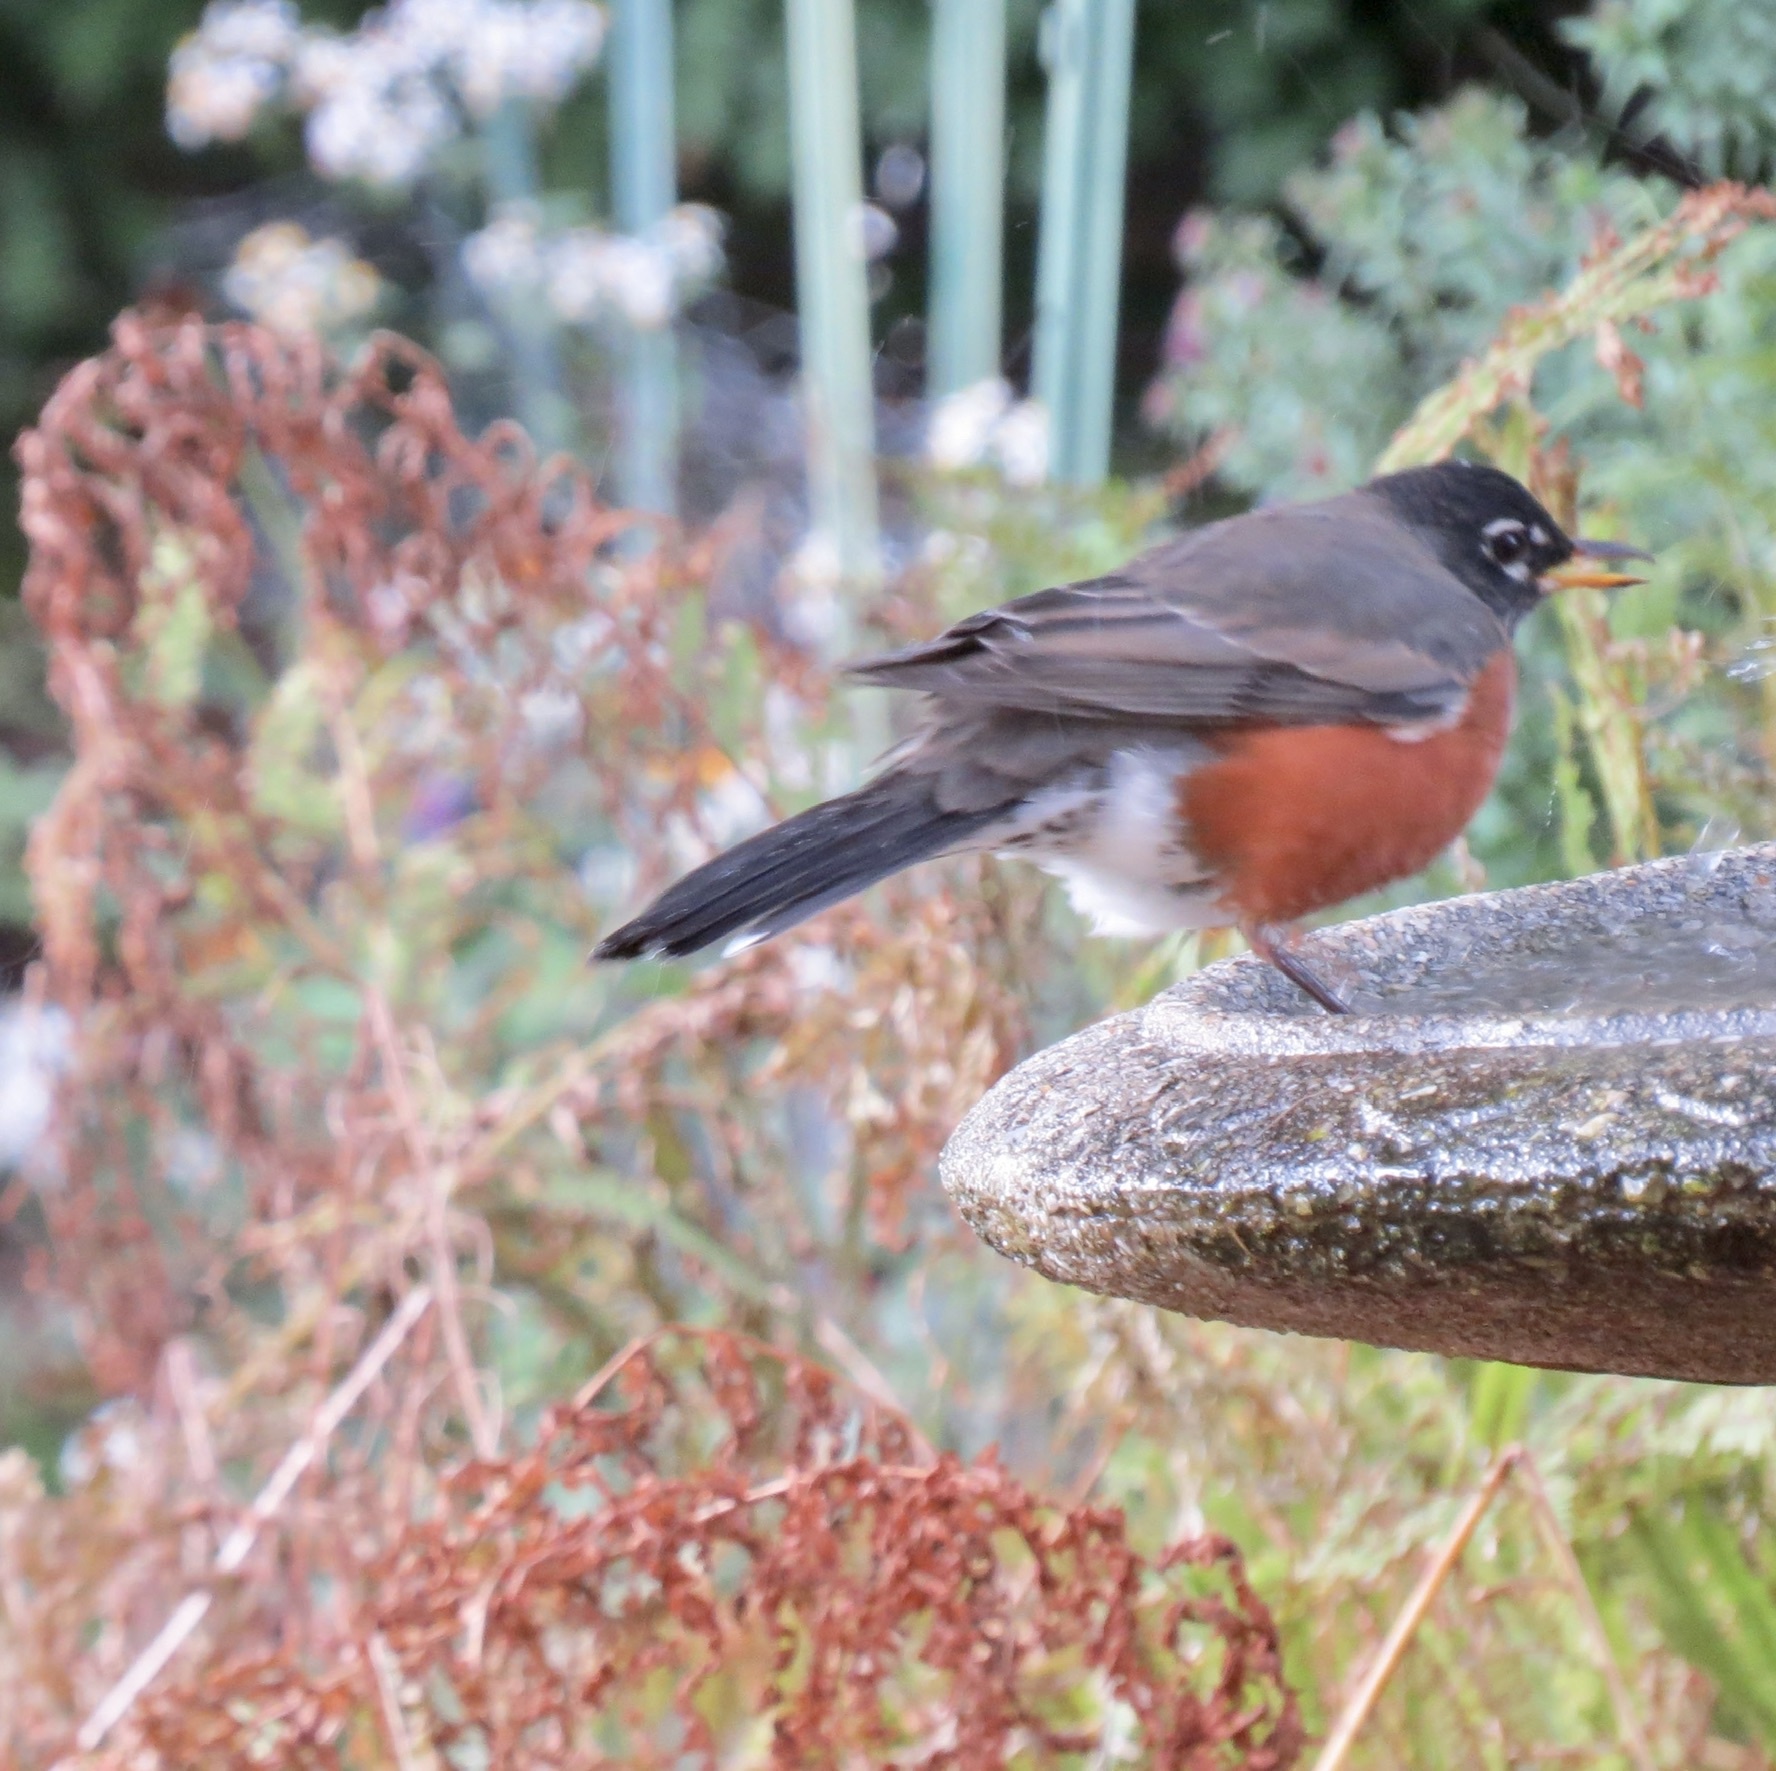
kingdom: Animalia
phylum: Chordata
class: Aves
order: Passeriformes
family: Turdidae
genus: Turdus
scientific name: Turdus migratorius
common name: American robin
